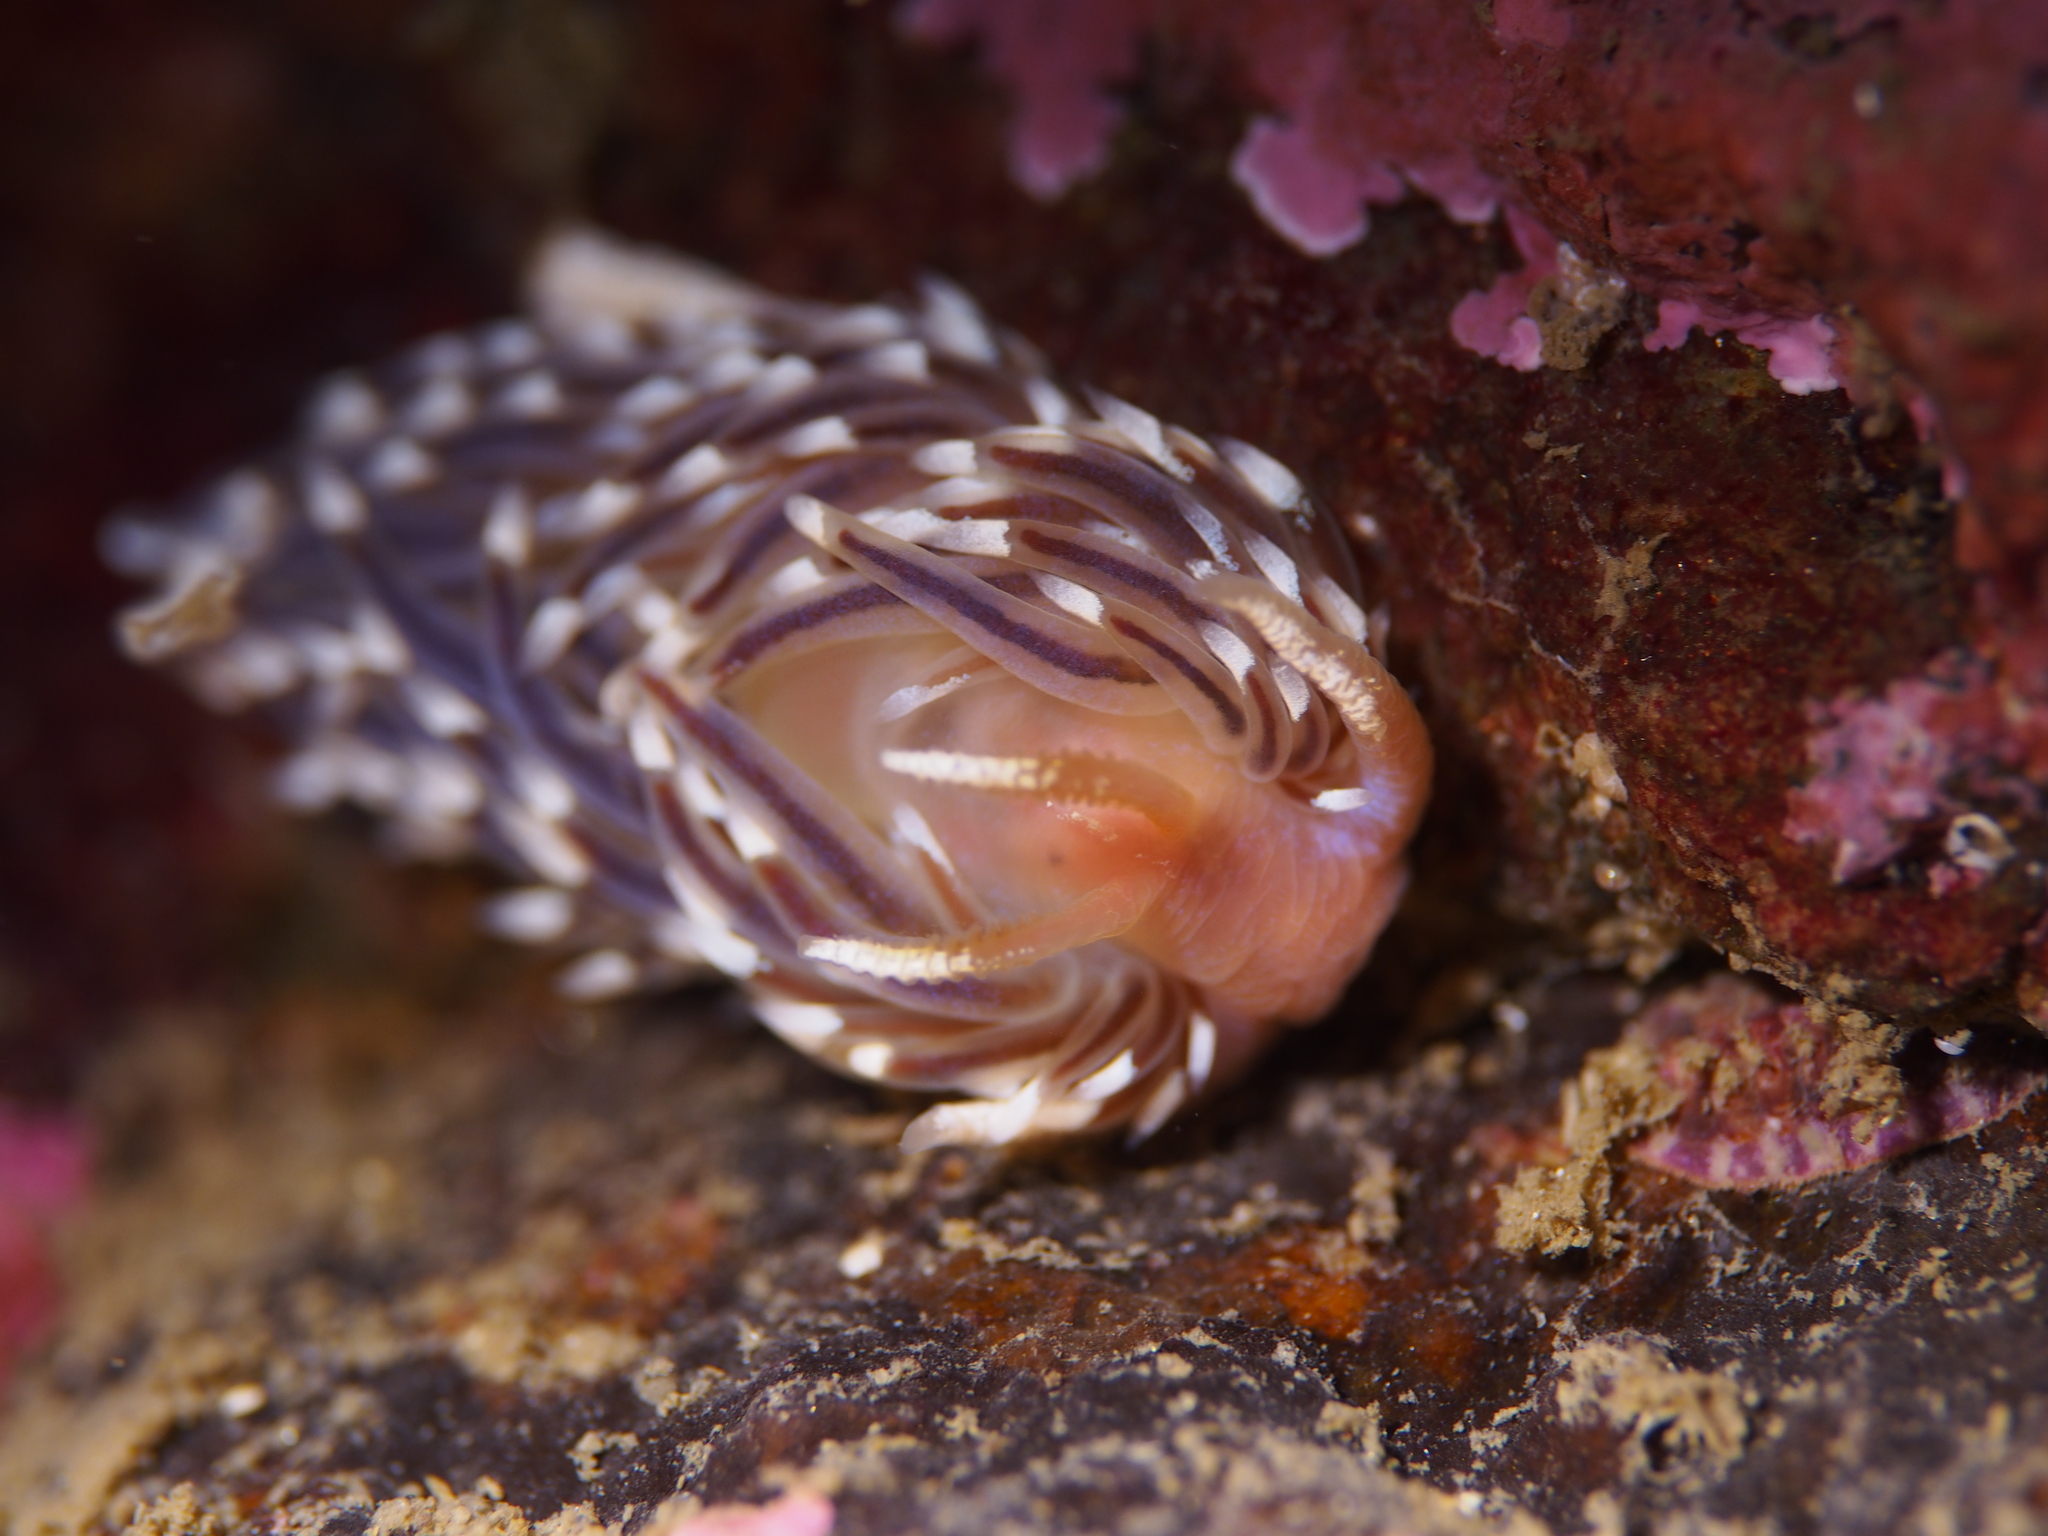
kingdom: Animalia
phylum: Mollusca
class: Gastropoda
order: Nudibranchia
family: Facelinidae
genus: Facelina
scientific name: Facelina bostoniensis
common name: Boston facelina
